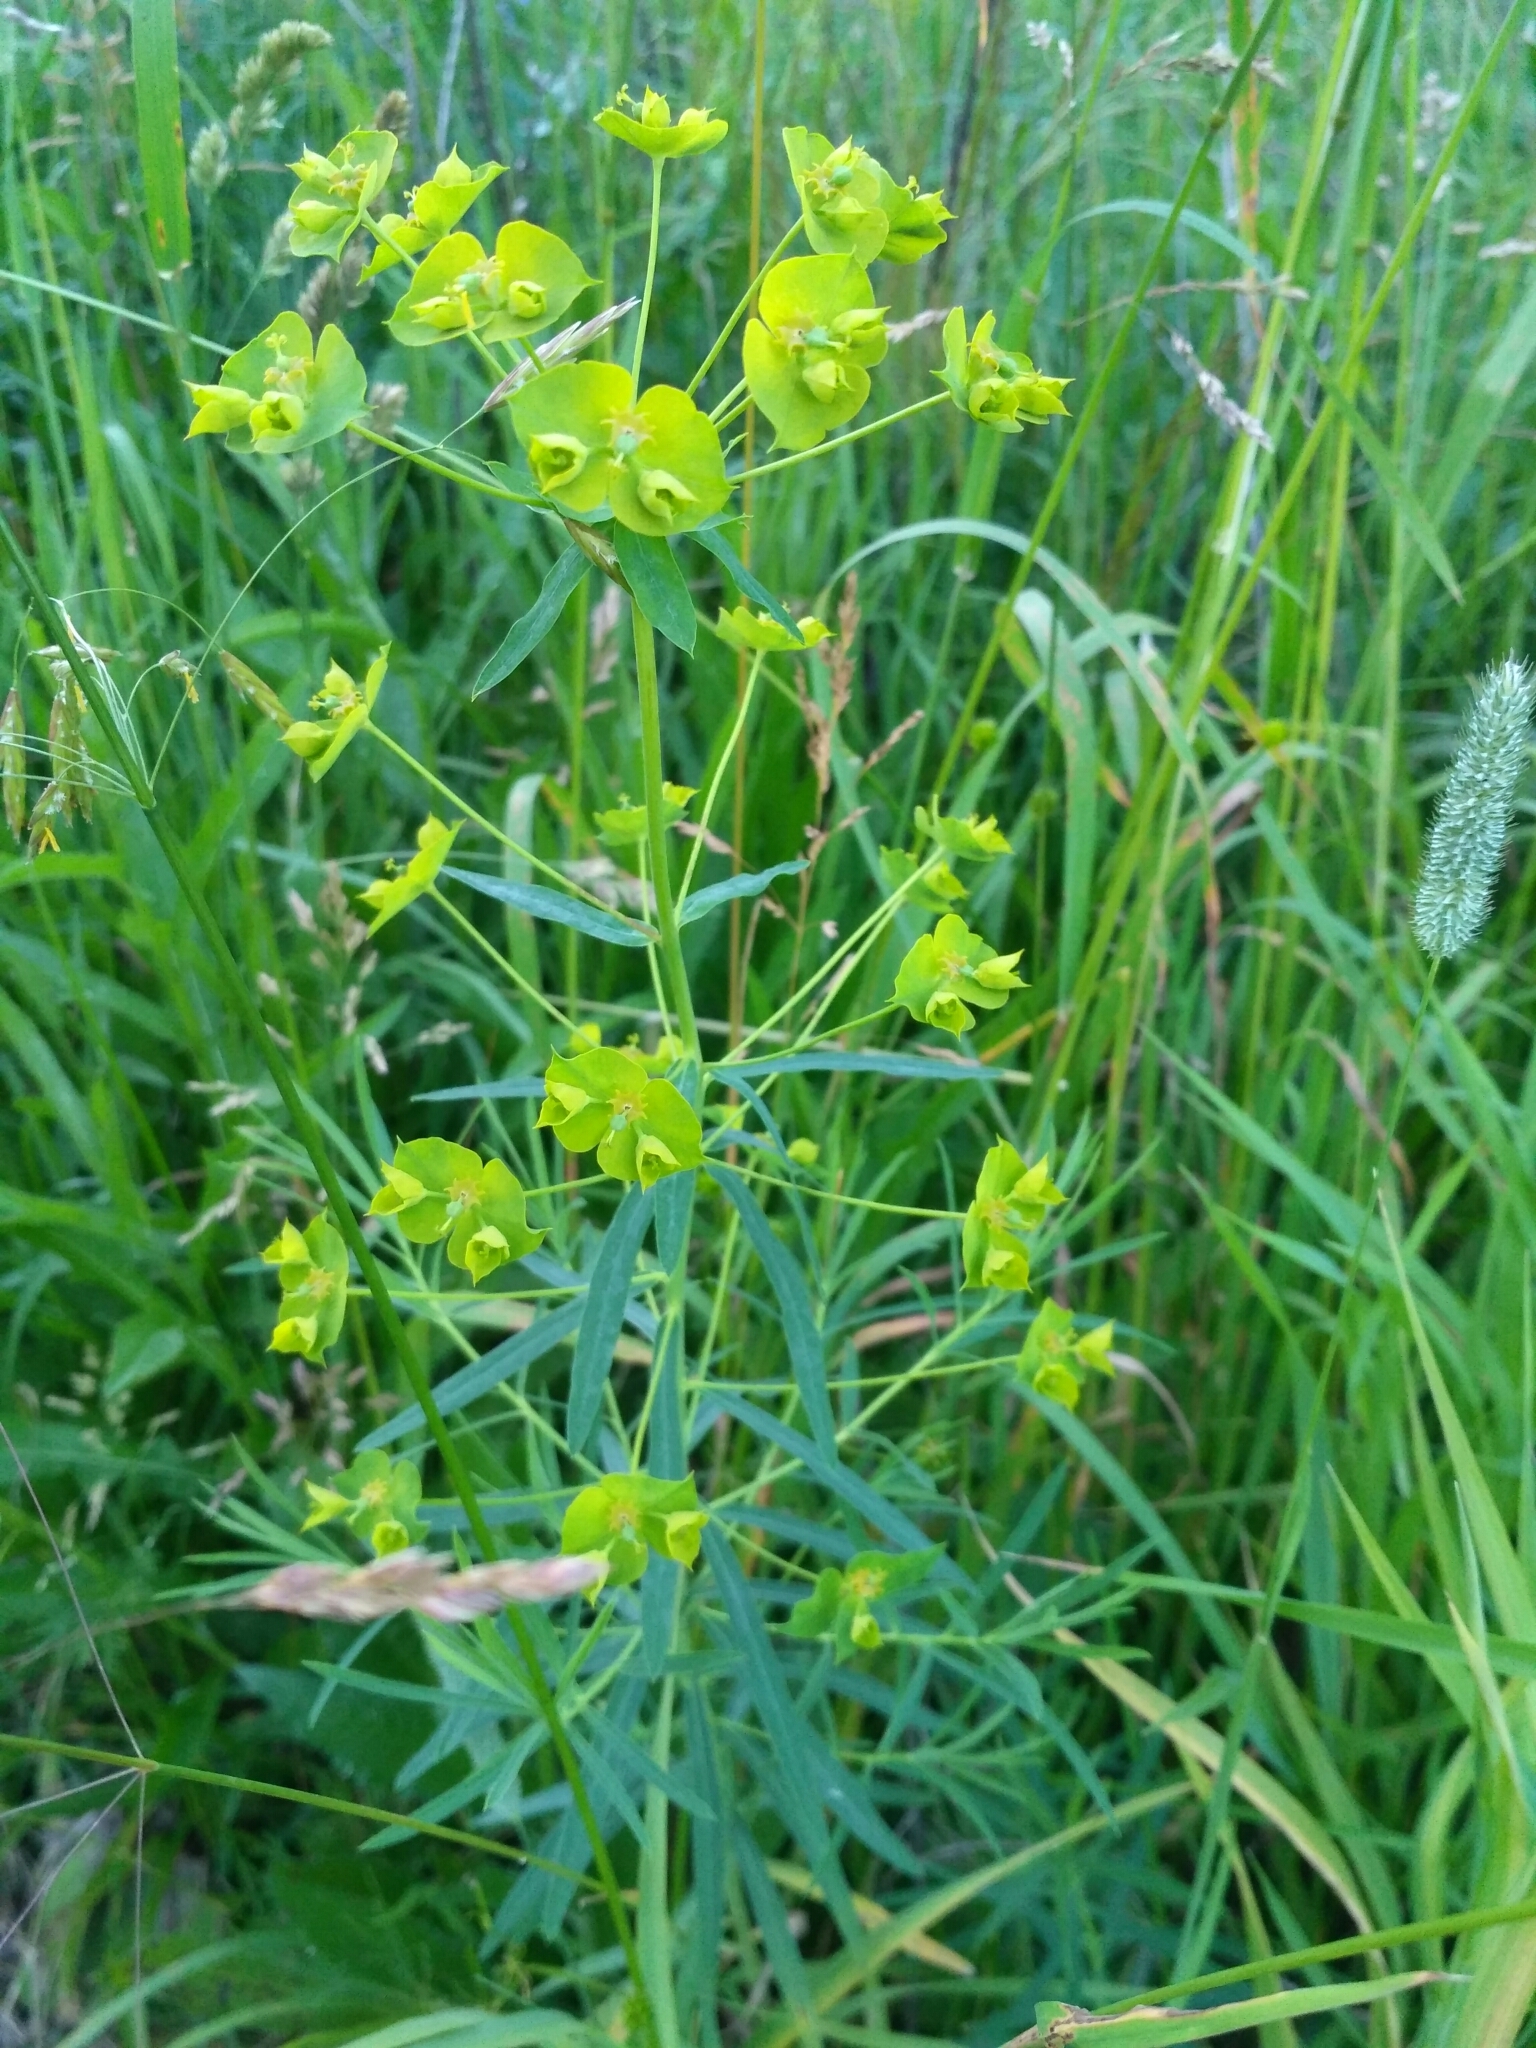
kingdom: Plantae
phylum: Tracheophyta
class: Magnoliopsida
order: Malpighiales
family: Euphorbiaceae
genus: Euphorbia
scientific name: Euphorbia virgata
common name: Leafy spurge
